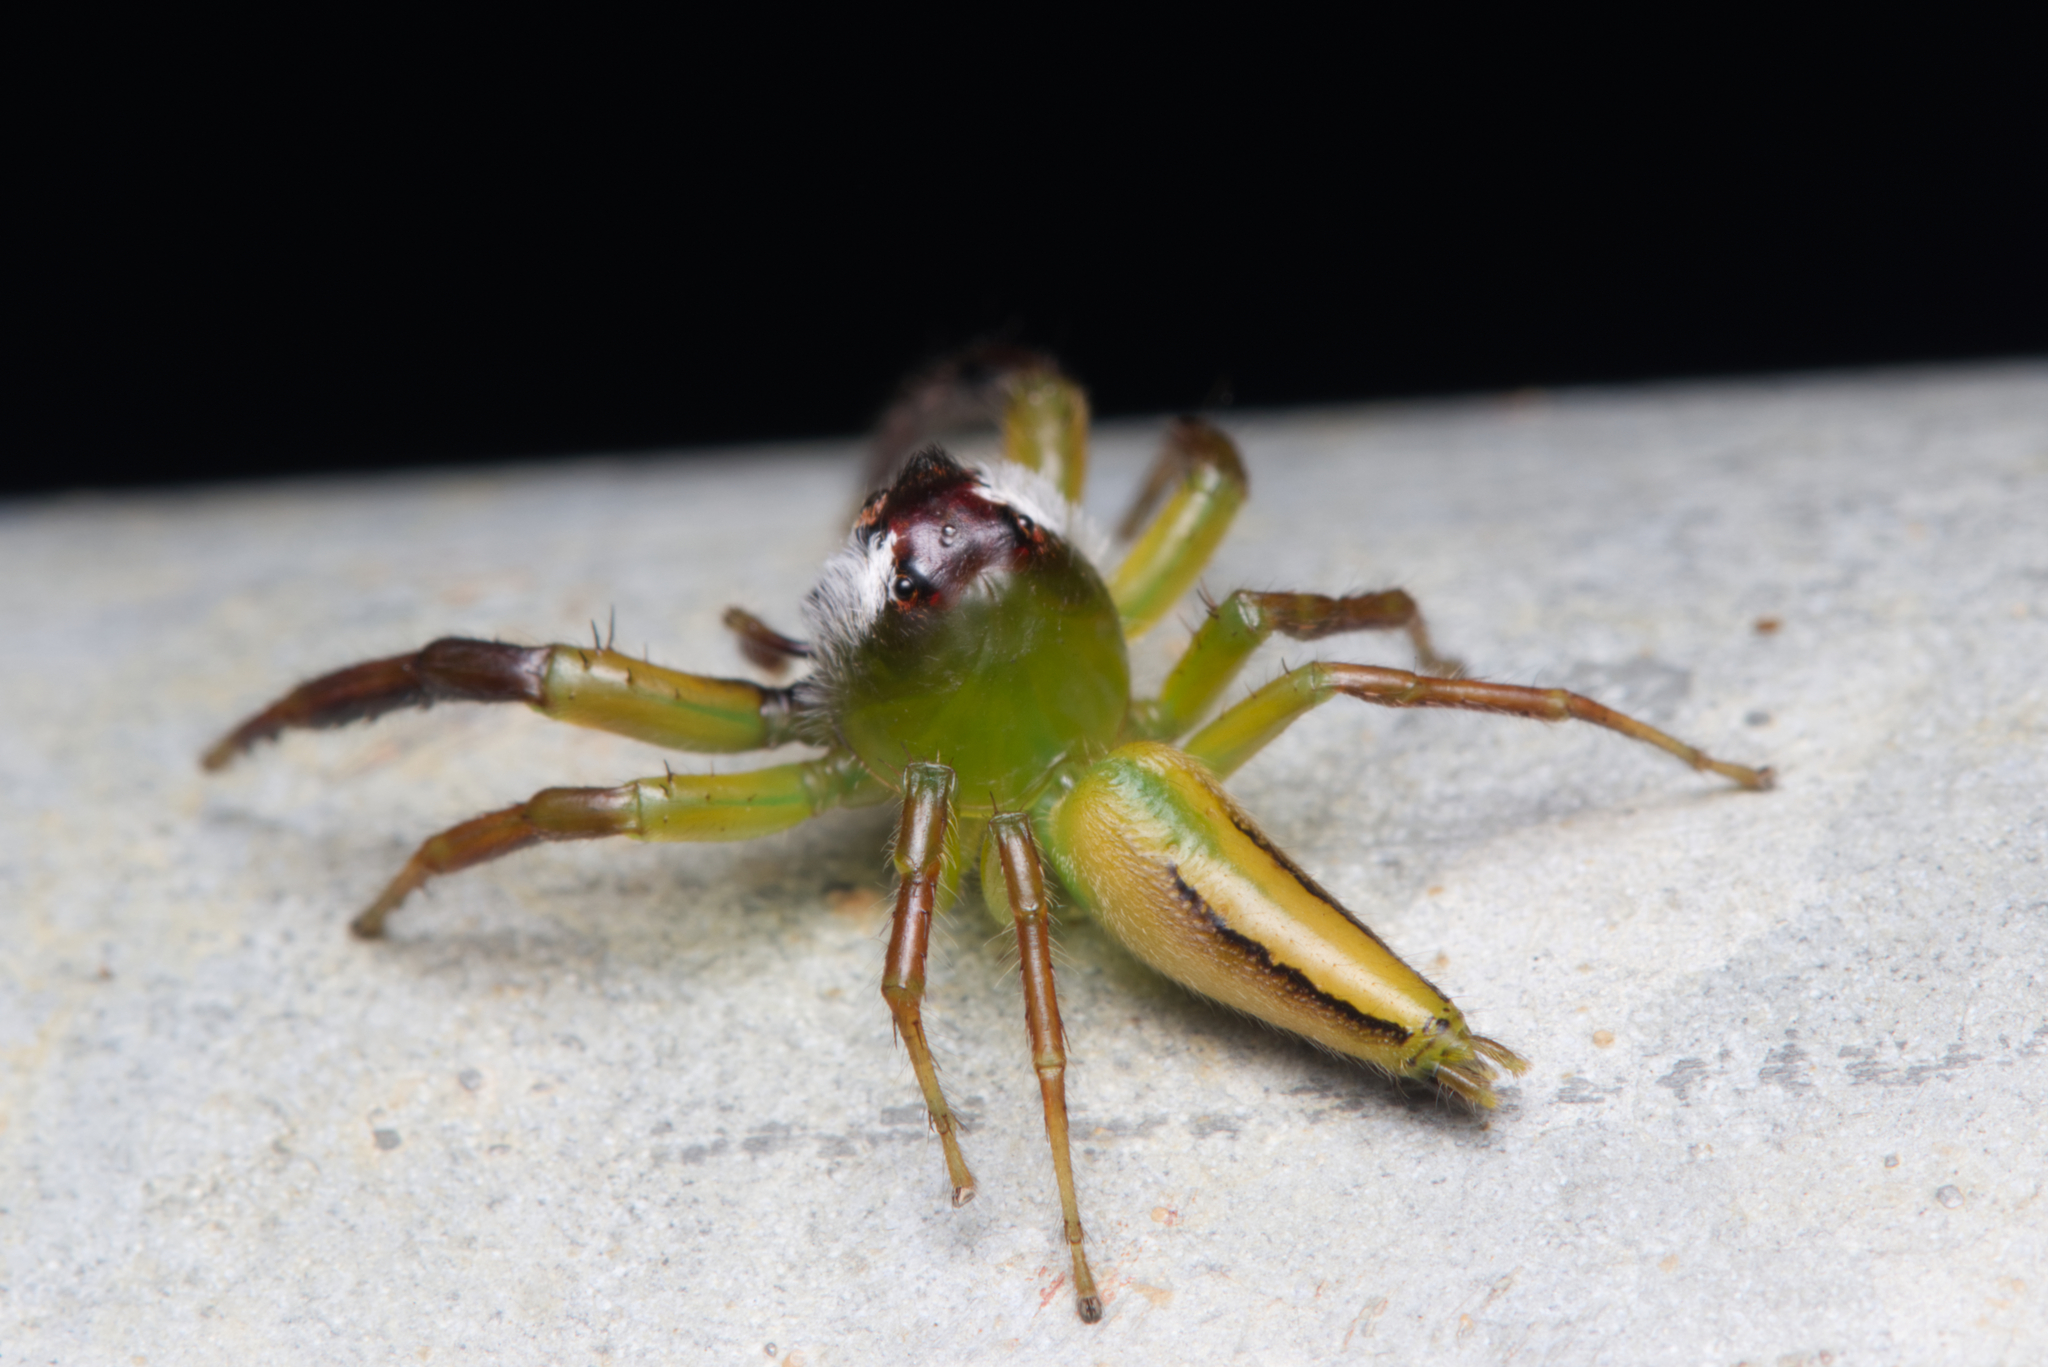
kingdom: Animalia
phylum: Arthropoda
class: Arachnida
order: Araneae
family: Salticidae
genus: Mopsus
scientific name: Mopsus mormon
